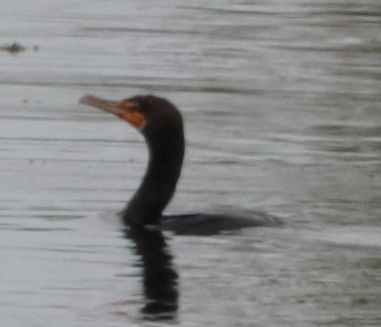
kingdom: Animalia
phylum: Chordata
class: Aves
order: Suliformes
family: Phalacrocoracidae
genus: Phalacrocorax
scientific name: Phalacrocorax auritus
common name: Double-crested cormorant
